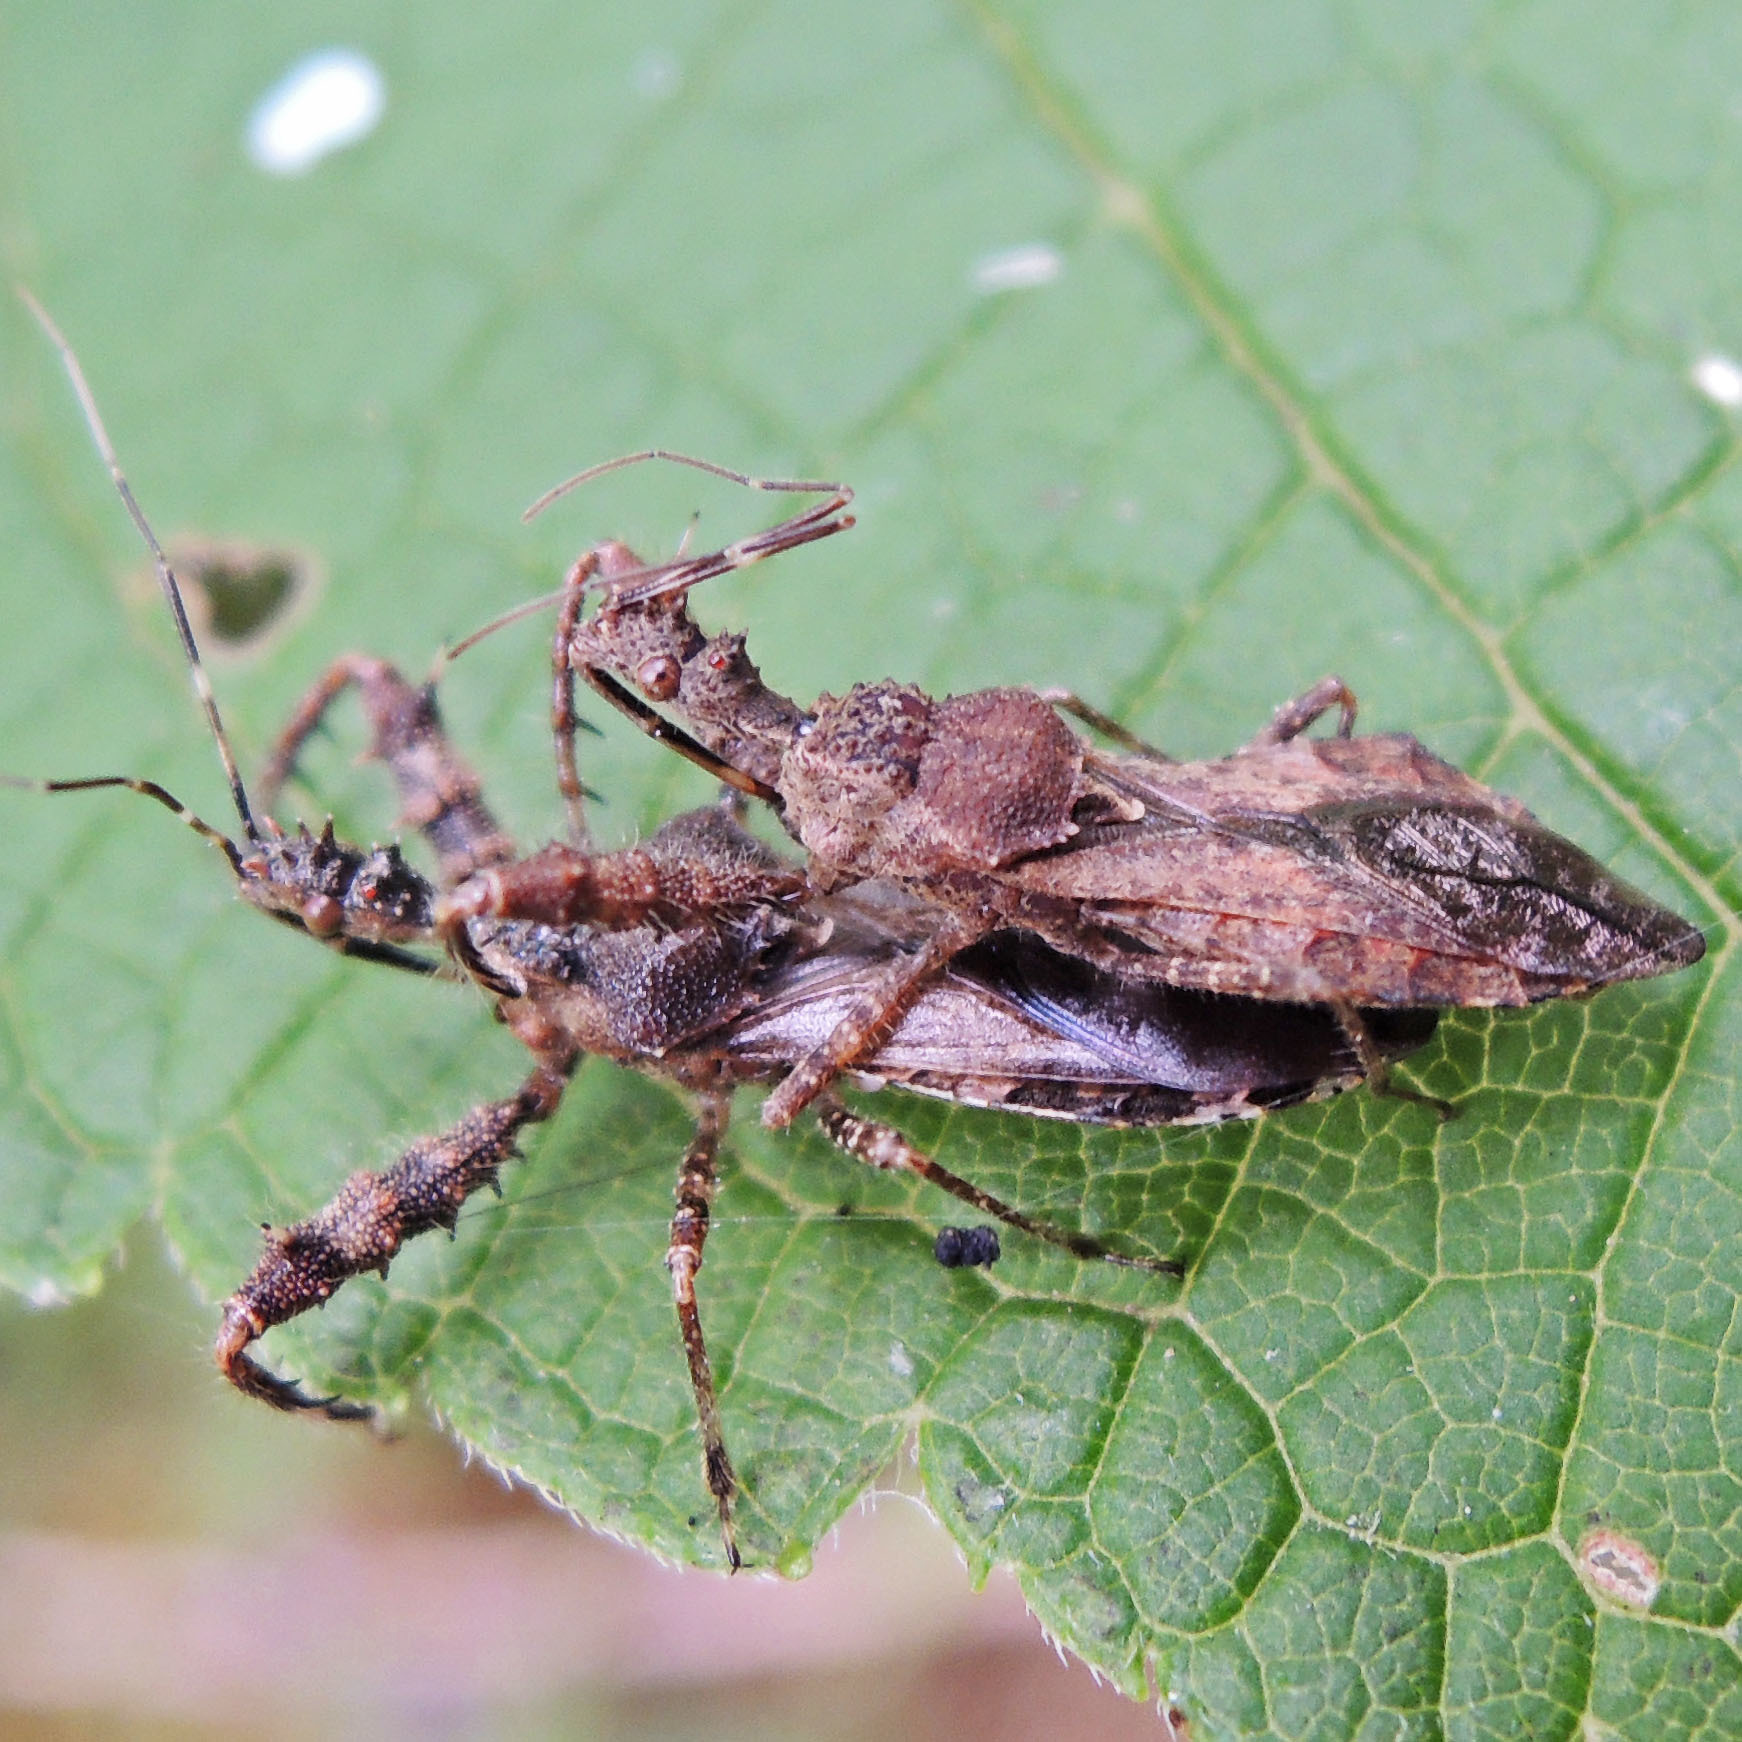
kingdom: Animalia
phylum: Arthropoda
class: Insecta
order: Hemiptera
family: Reduviidae
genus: Sinea
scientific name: Sinea spinipes
